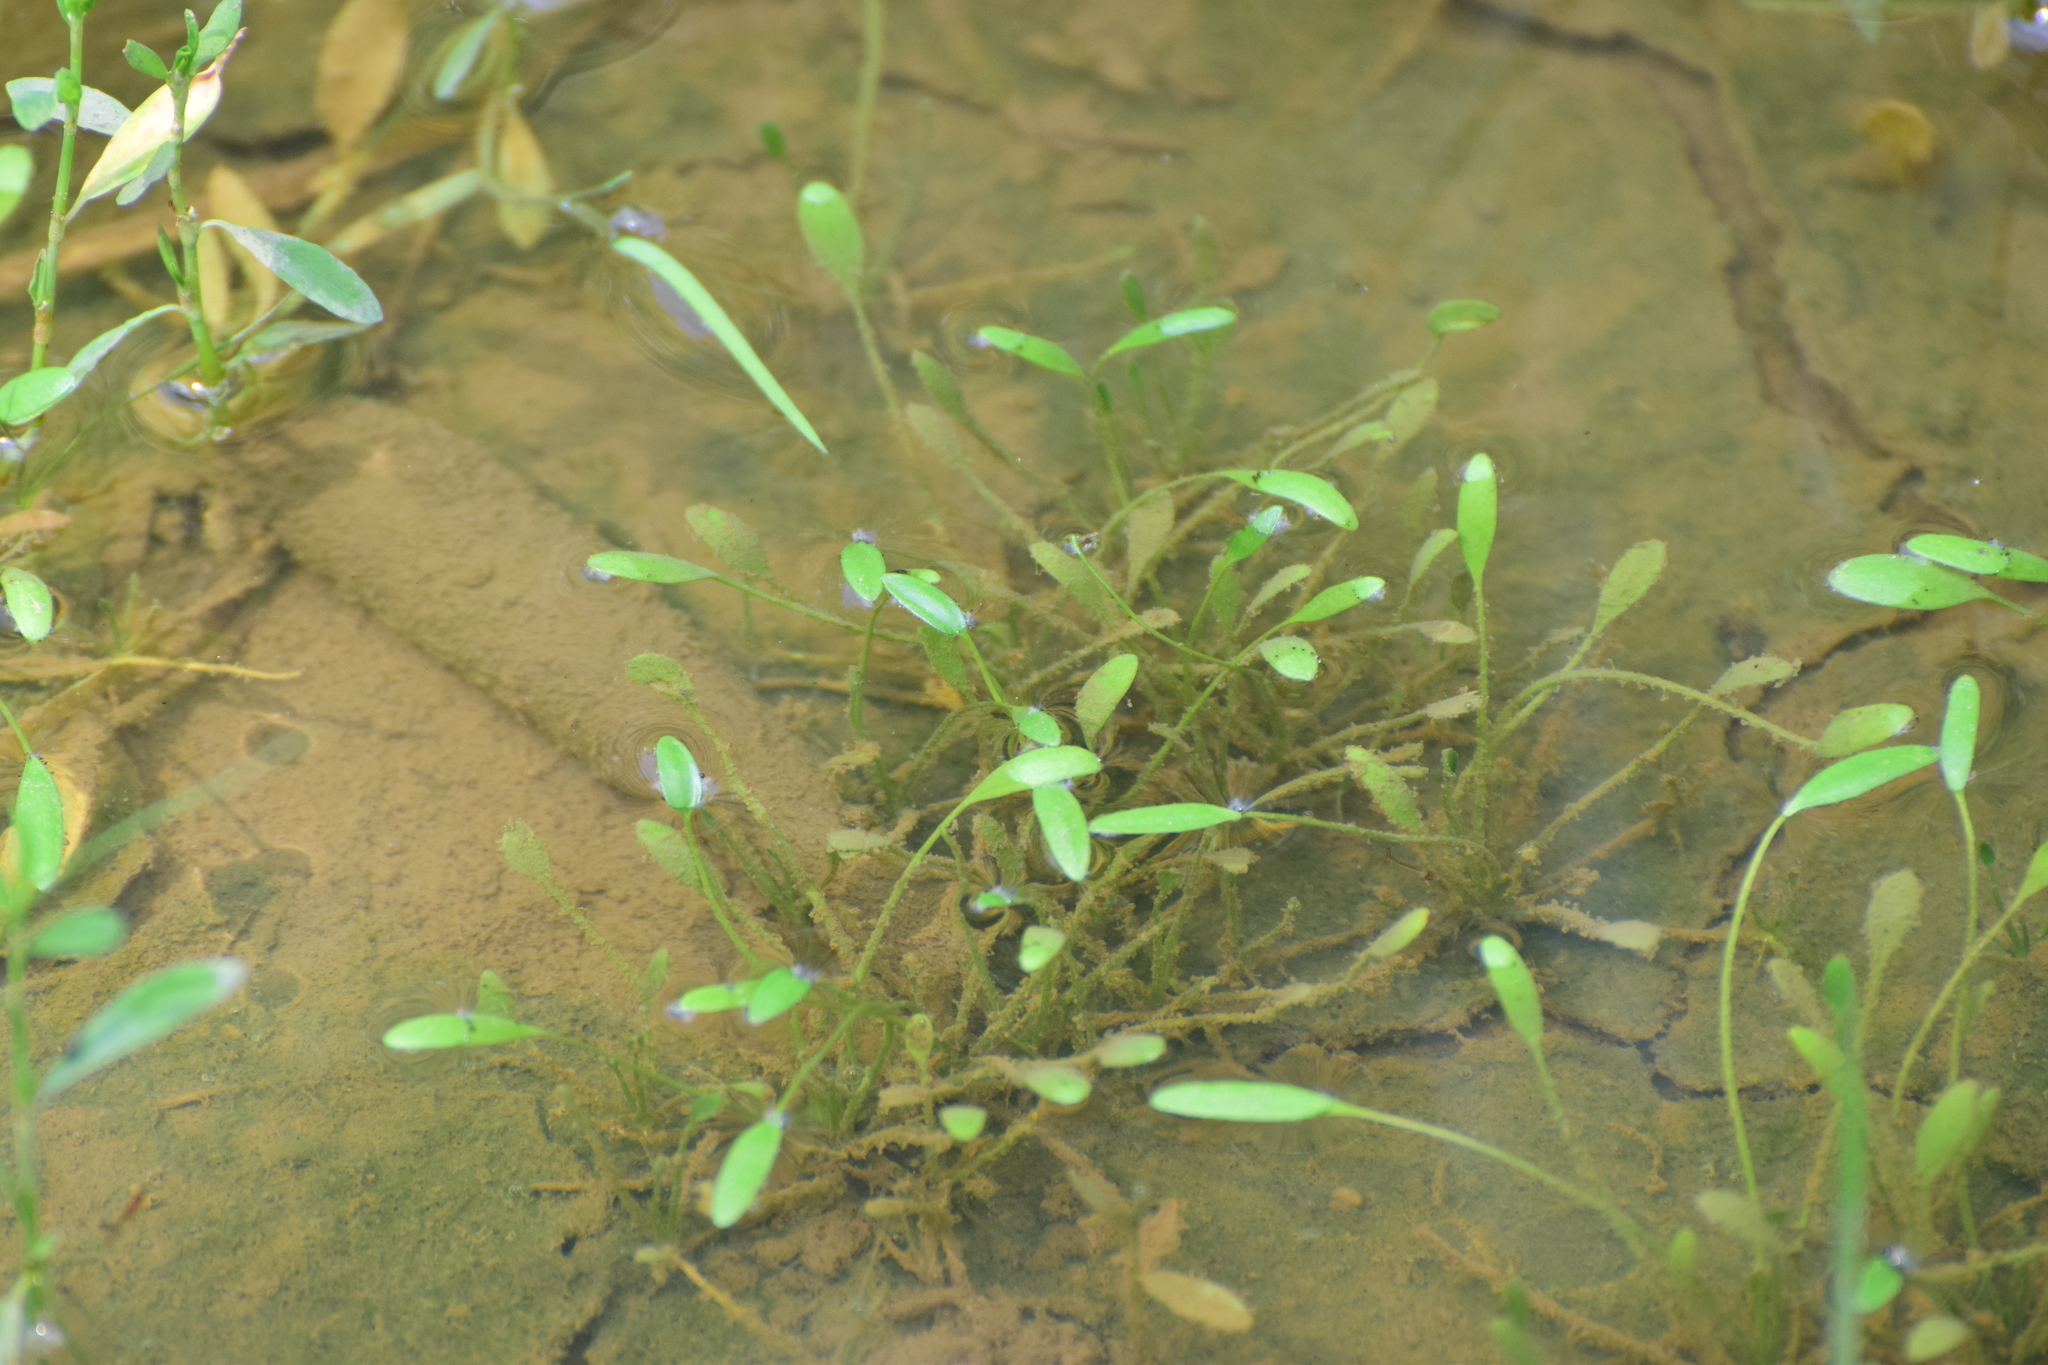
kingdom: Plantae
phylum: Tracheophyta
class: Magnoliopsida
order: Lamiales
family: Scrophulariaceae
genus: Limosella
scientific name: Limosella aquatica
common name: Mudwort
